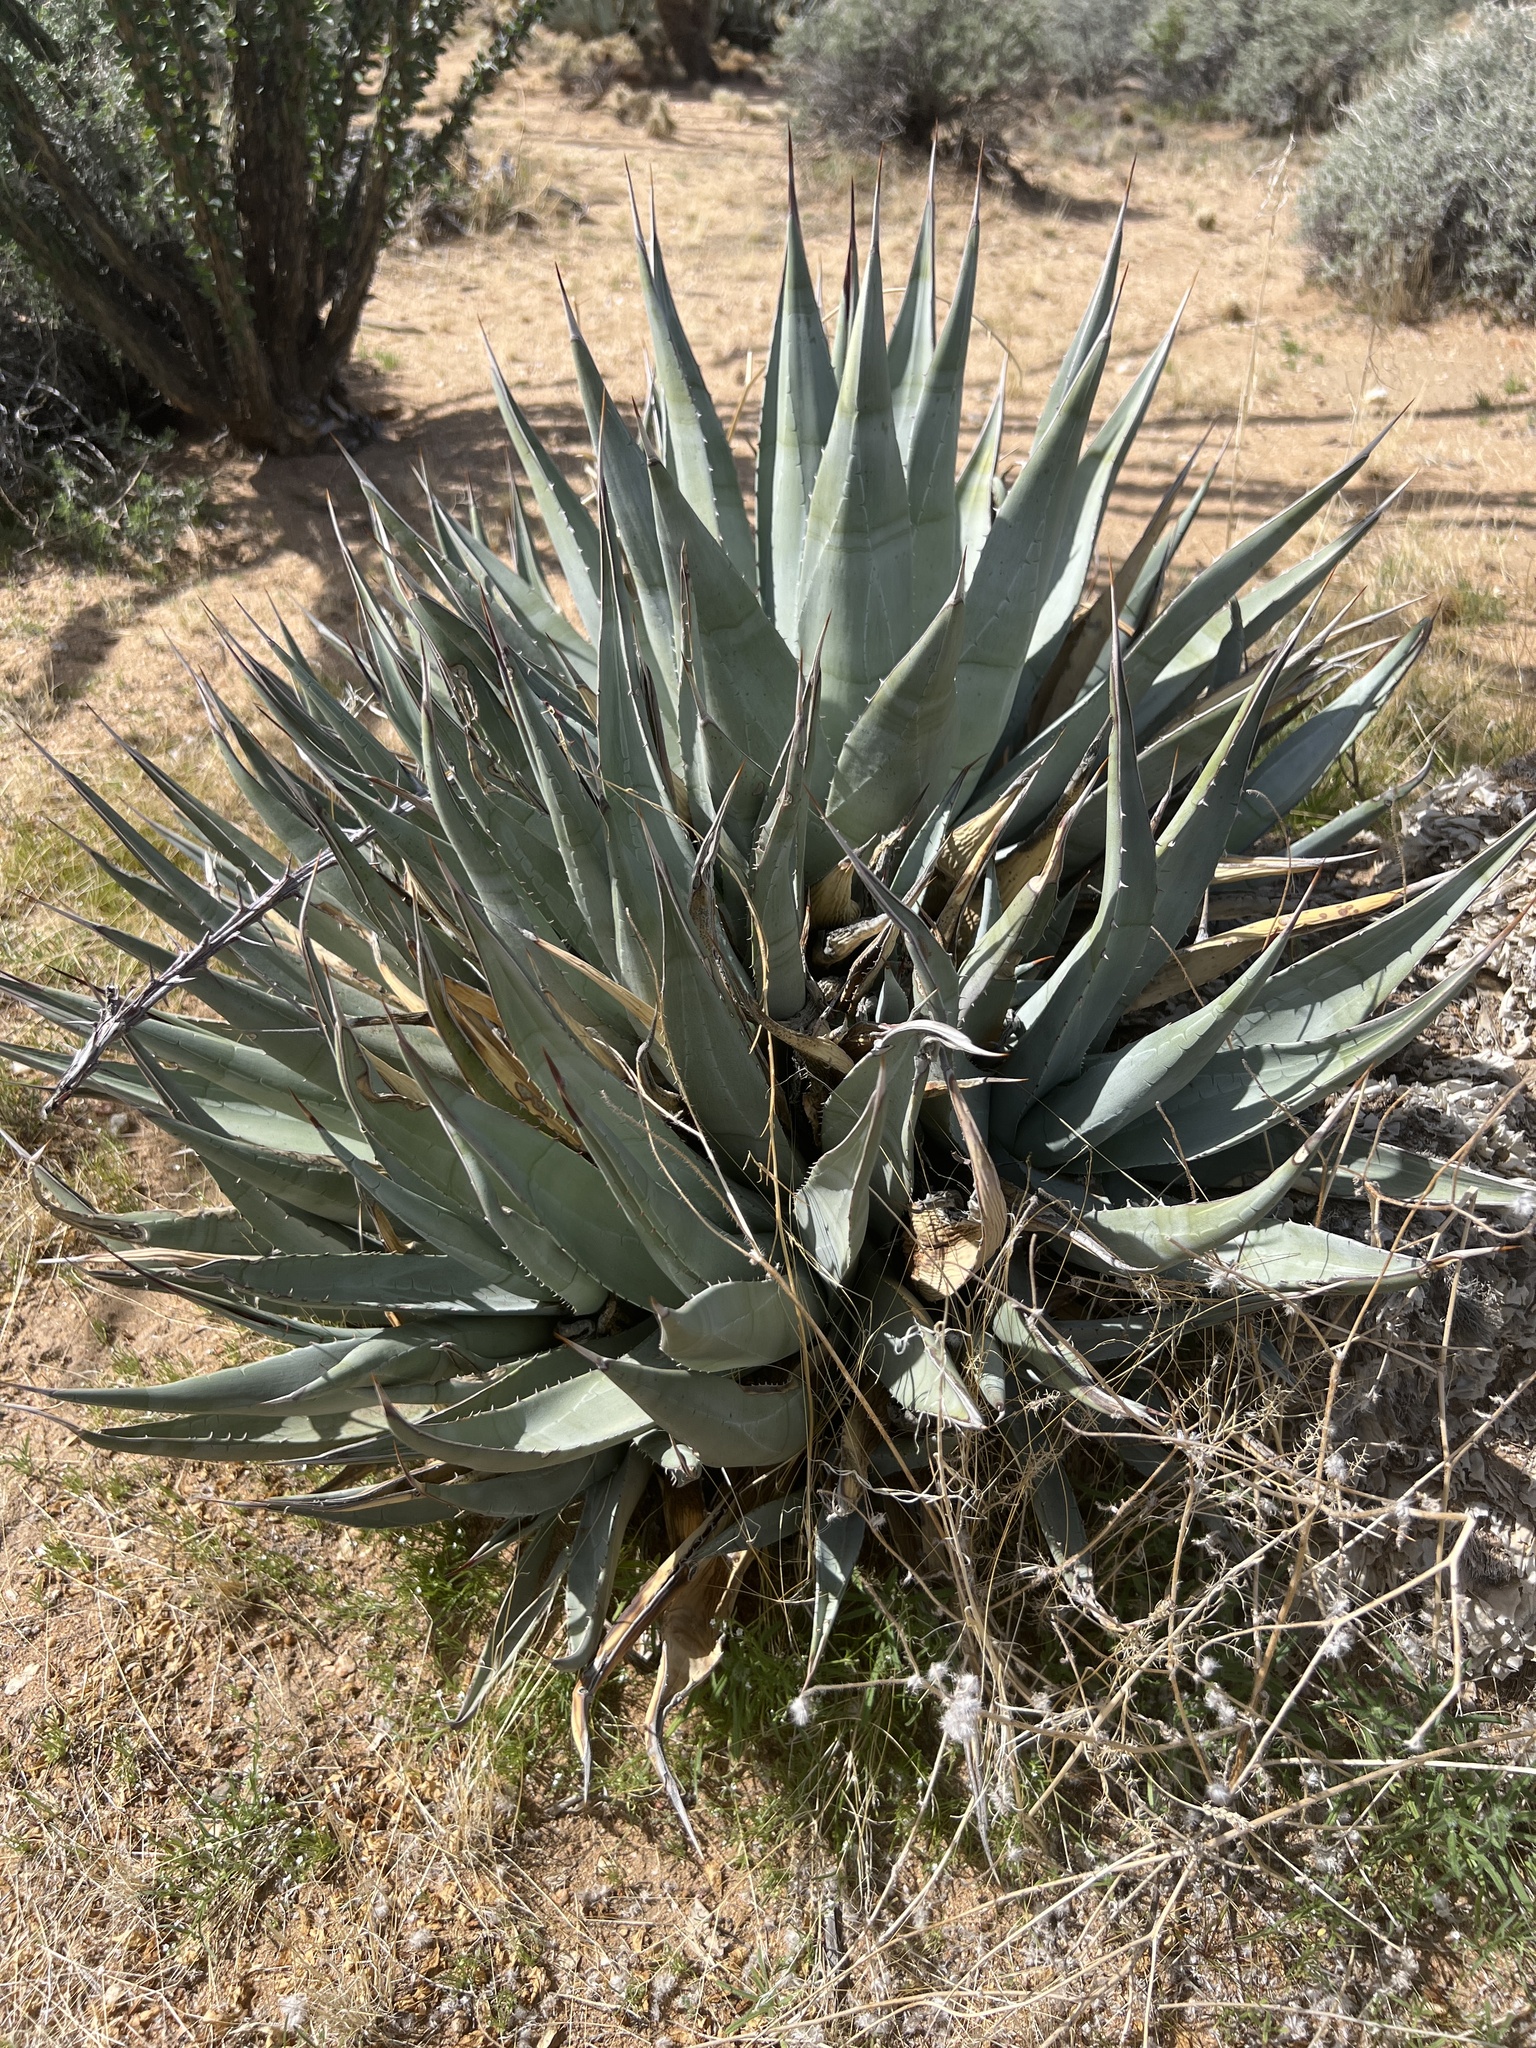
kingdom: Plantae
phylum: Tracheophyta
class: Liliopsida
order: Asparagales
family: Asparagaceae
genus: Agave
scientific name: Agave deserti
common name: Desert agave
